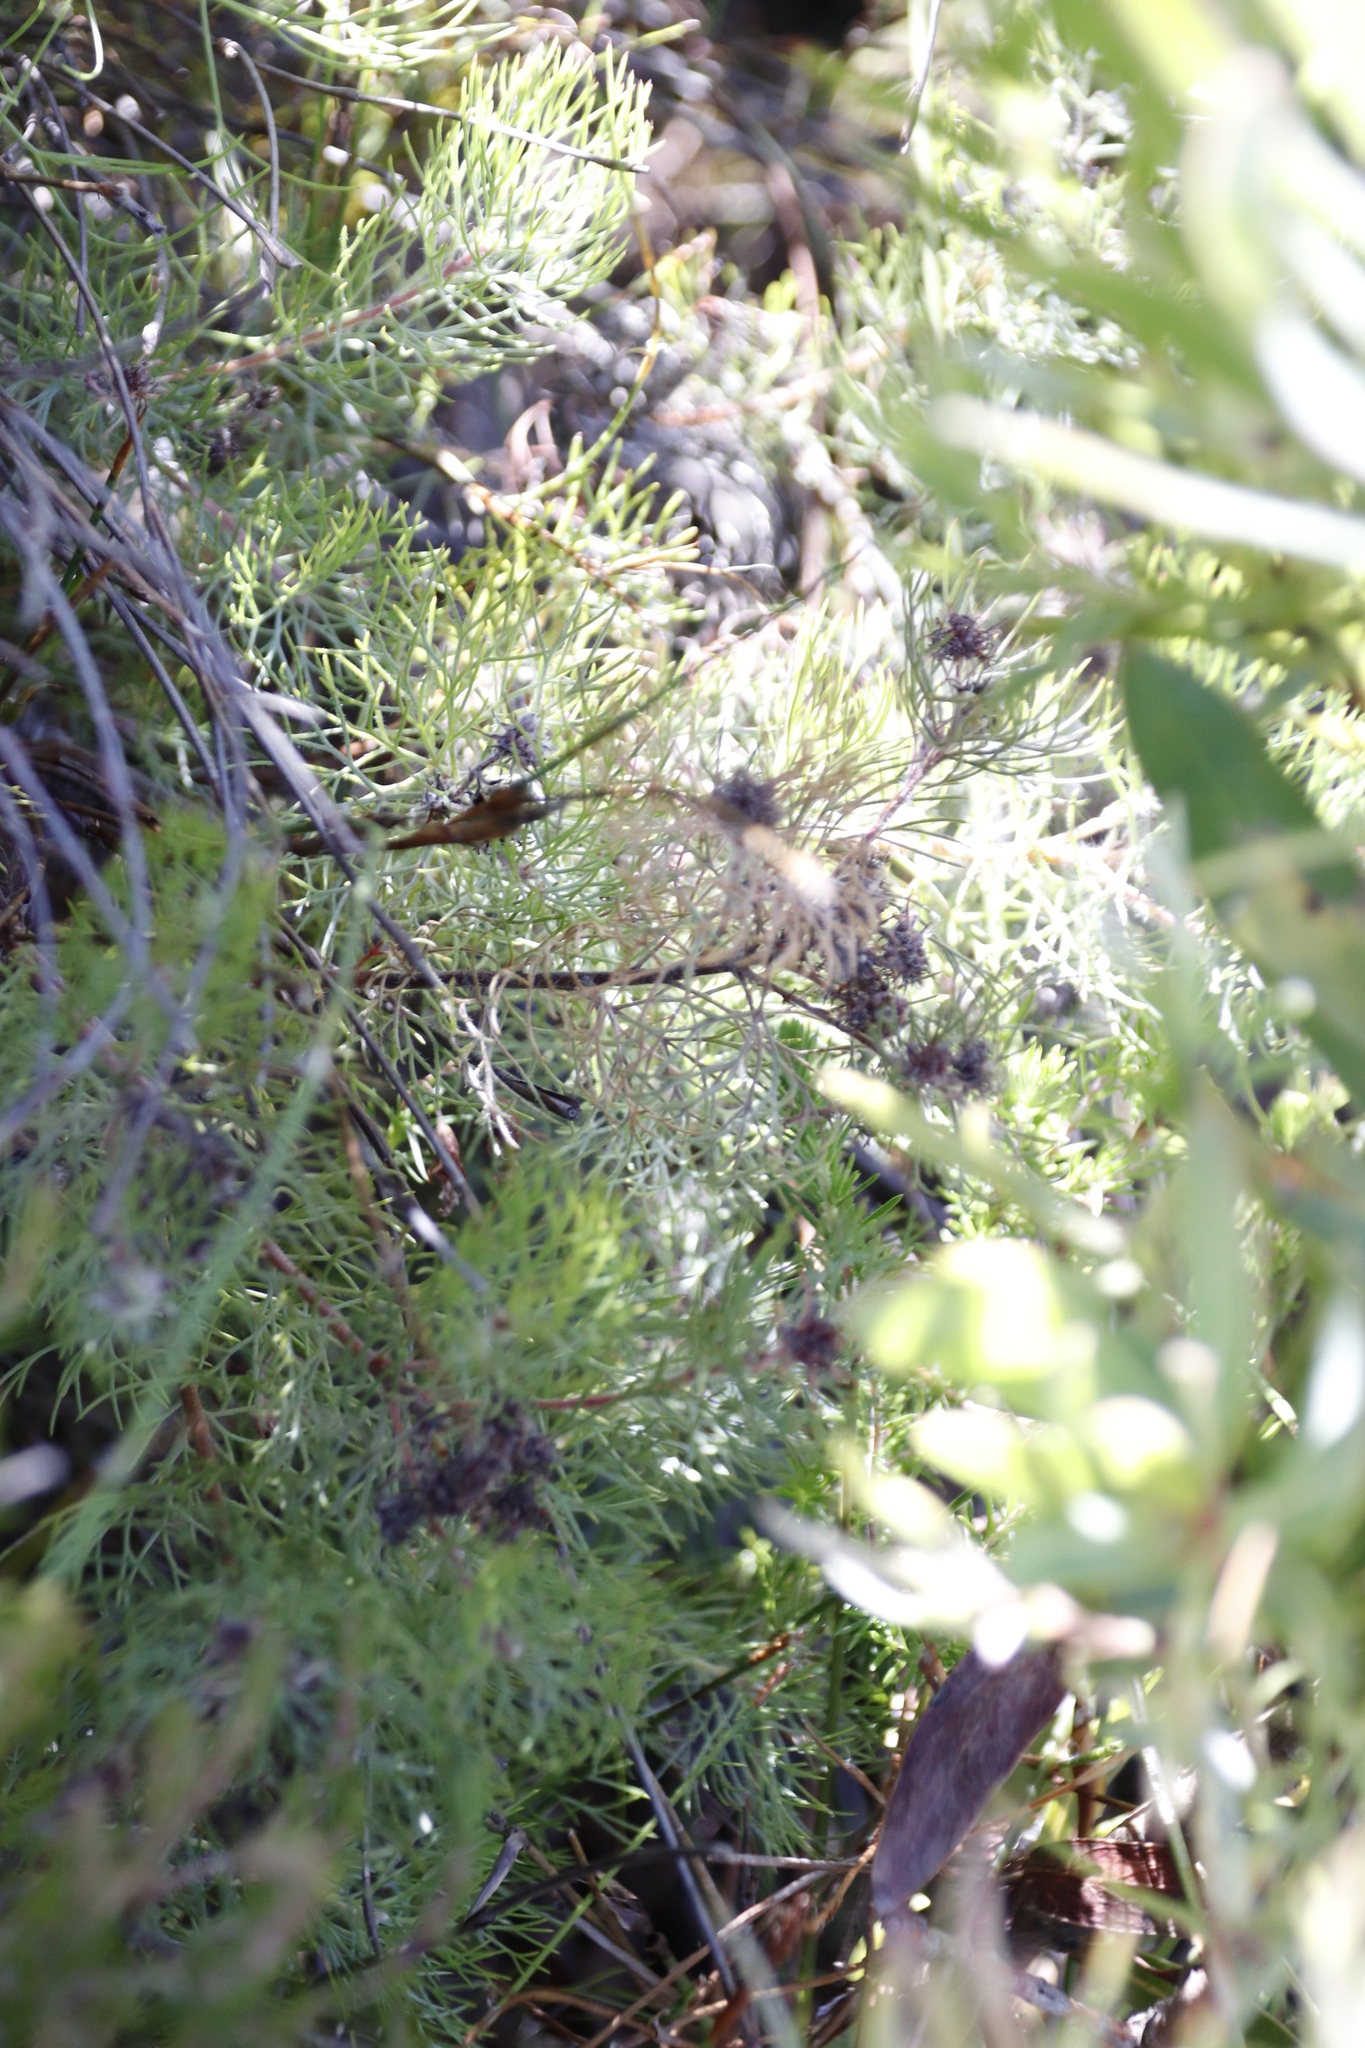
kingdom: Plantae
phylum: Tracheophyta
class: Magnoliopsida
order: Proteales
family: Proteaceae
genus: Serruria
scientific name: Serruria fasciflora
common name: Common pin spiderhead
